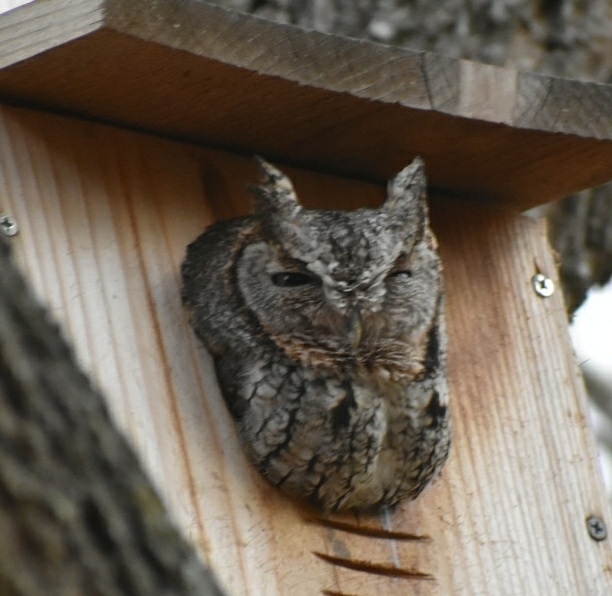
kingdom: Animalia
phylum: Chordata
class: Aves
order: Strigiformes
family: Strigidae
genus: Megascops
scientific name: Megascops asio
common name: Eastern screech-owl
